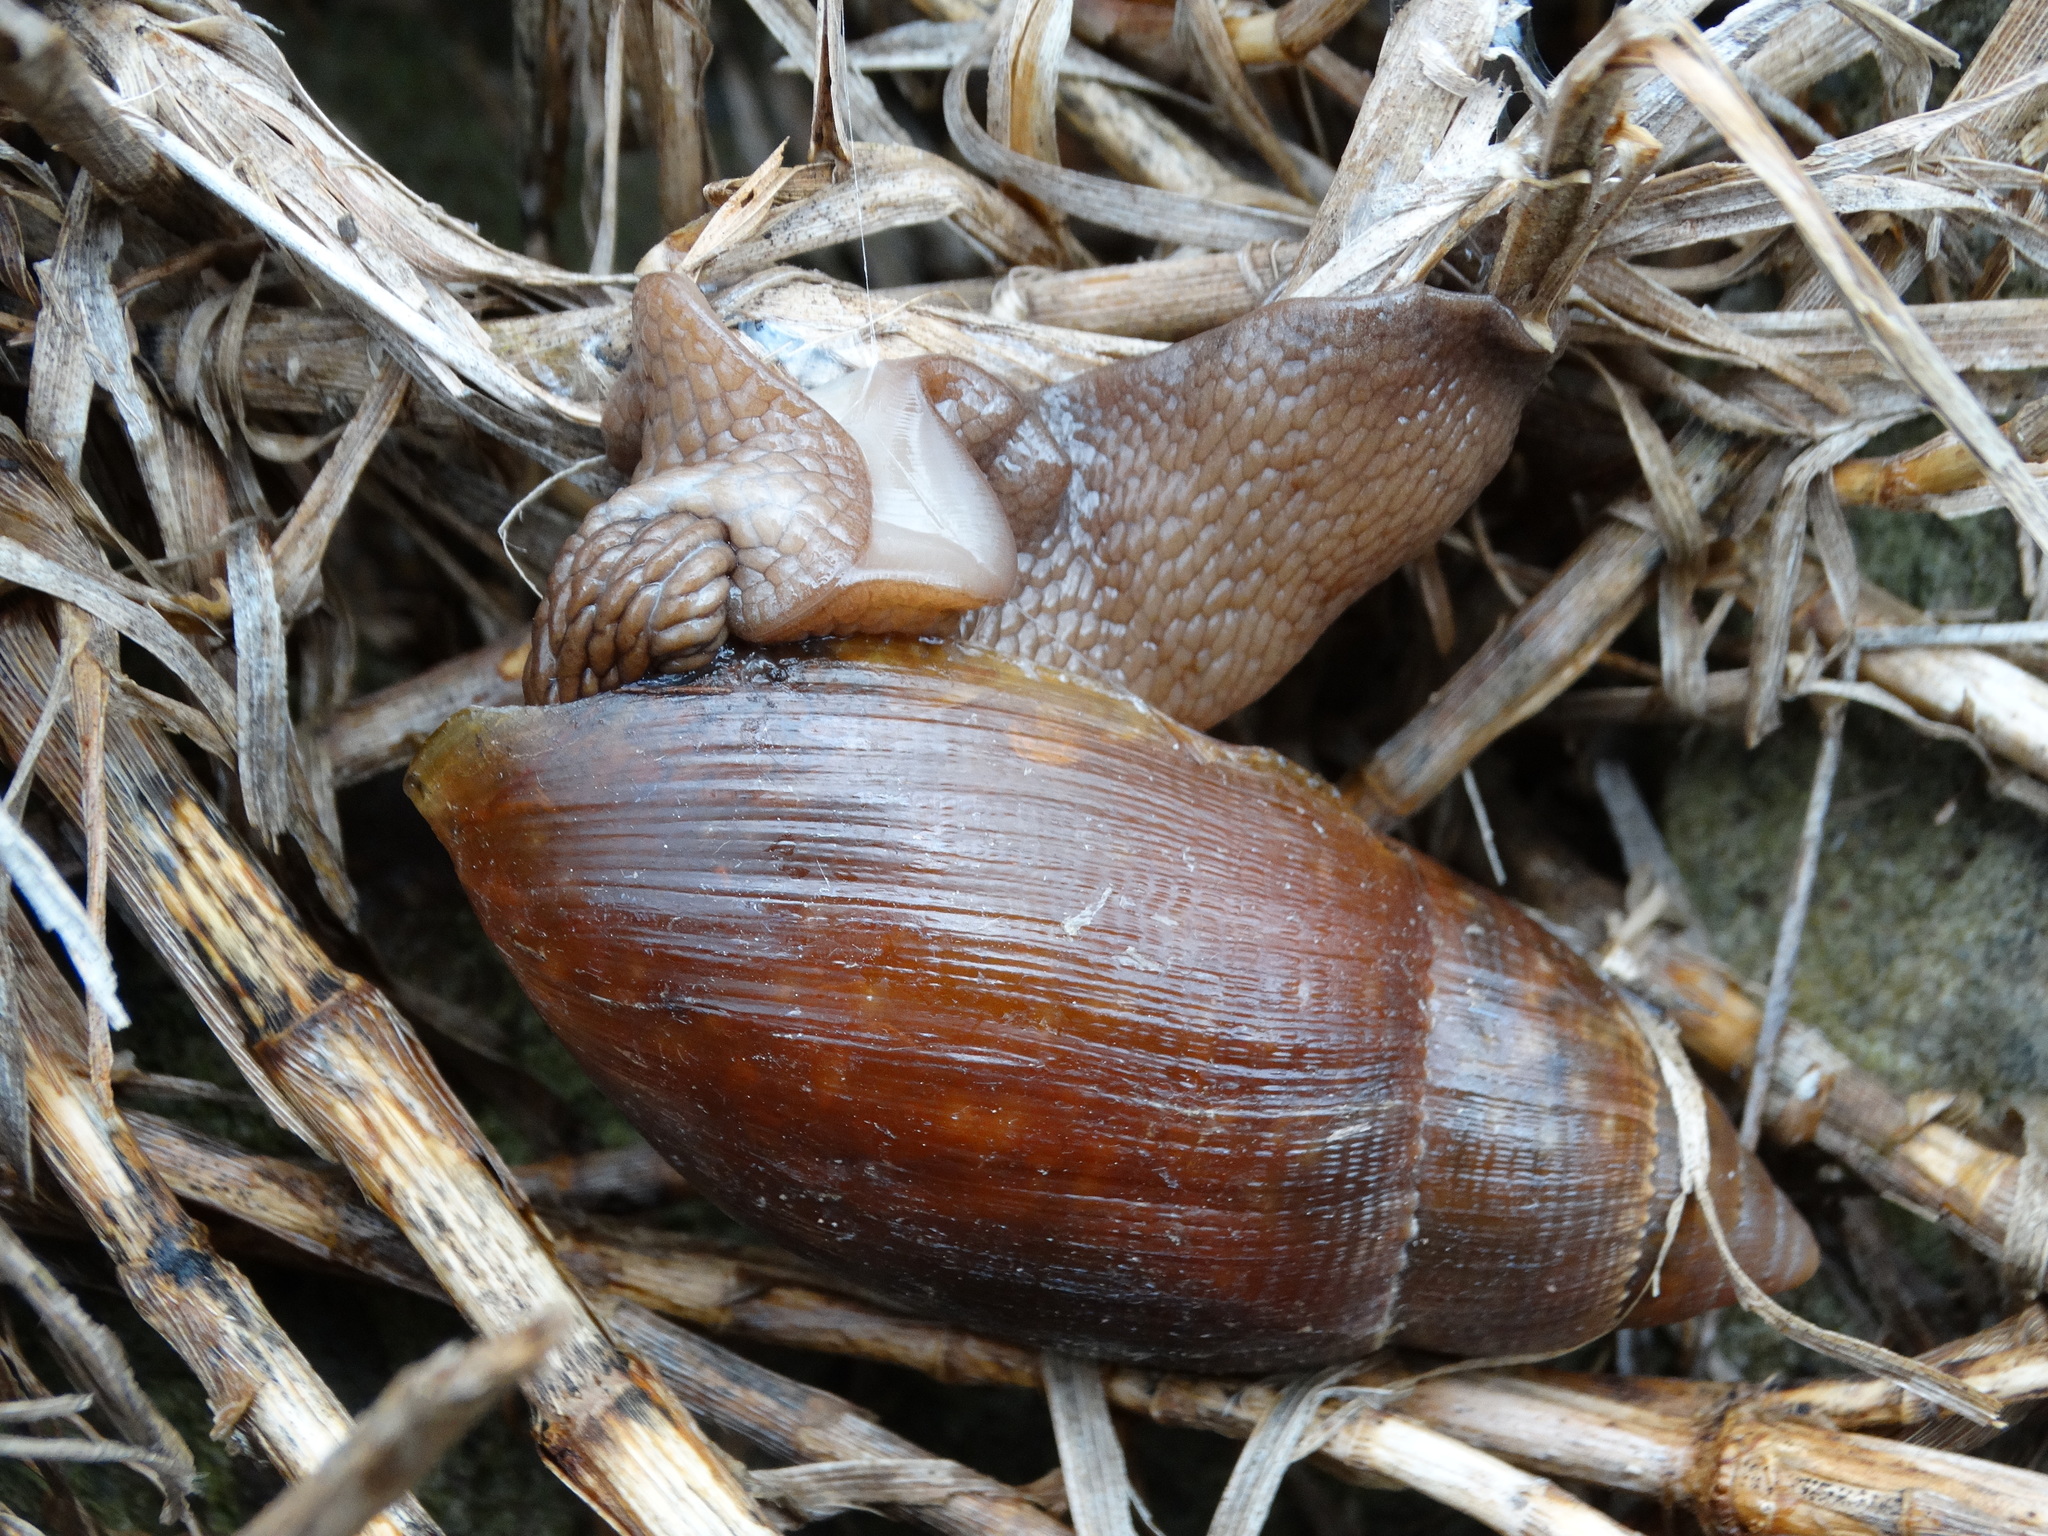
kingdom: Animalia
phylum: Mollusca
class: Gastropoda
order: Stylommatophora
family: Spiraxidae
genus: Euglandina
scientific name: Euglandina
